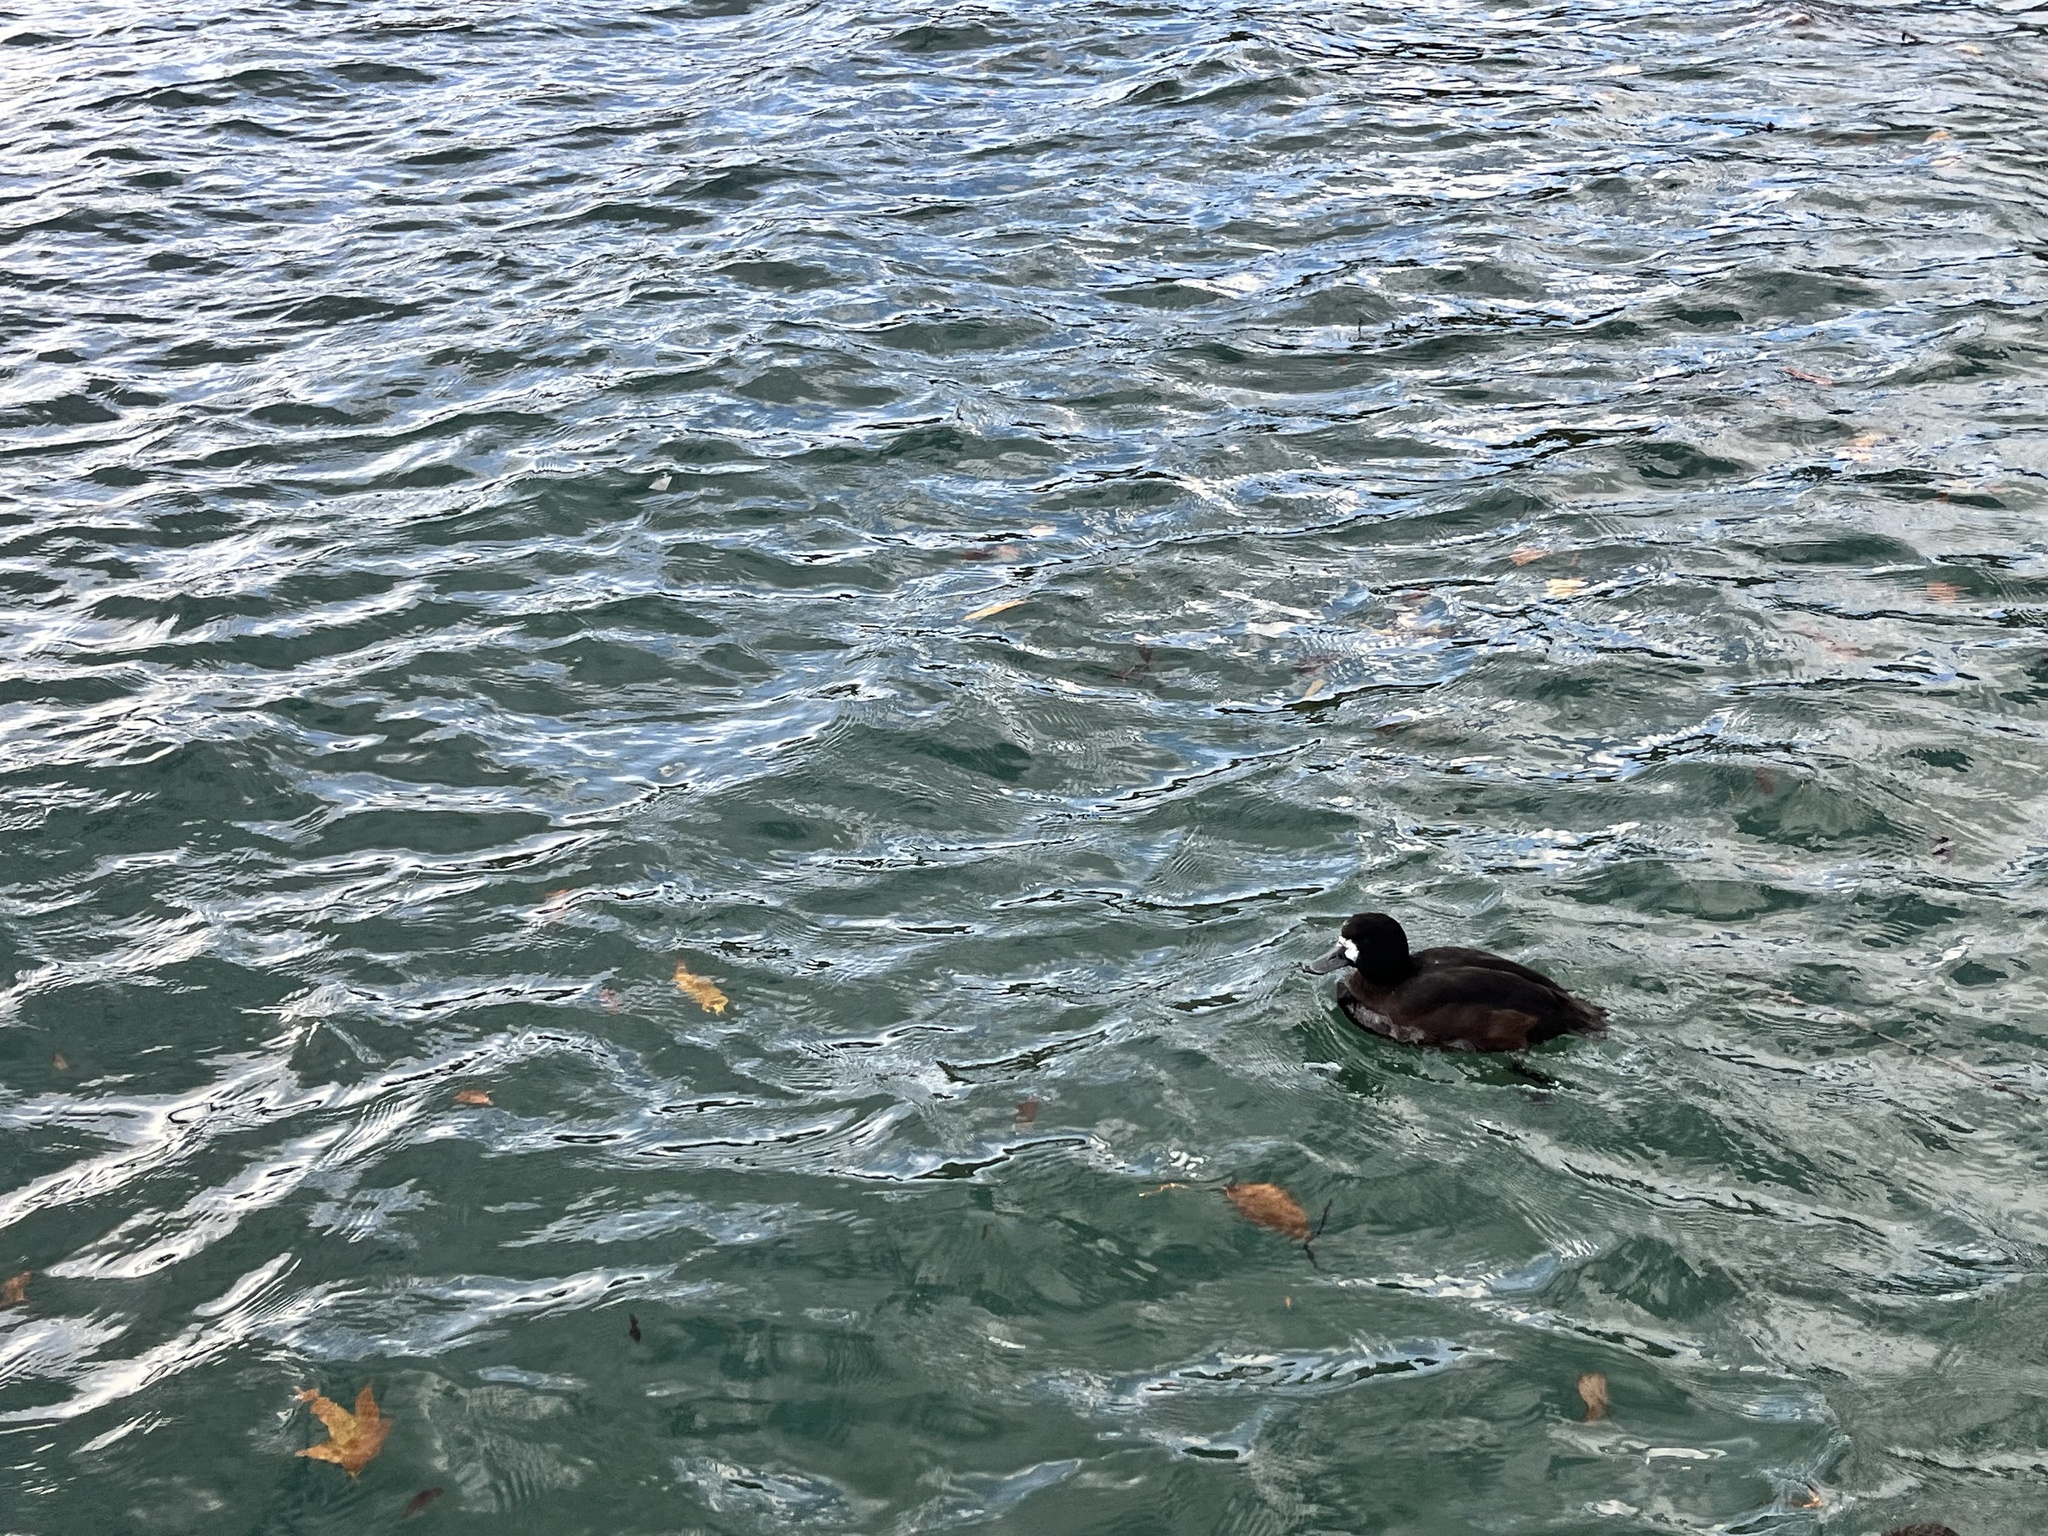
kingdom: Animalia
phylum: Chordata
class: Aves
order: Anseriformes
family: Anatidae
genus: Aythya
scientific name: Aythya novaeseelandiae
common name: New zealand scaup
